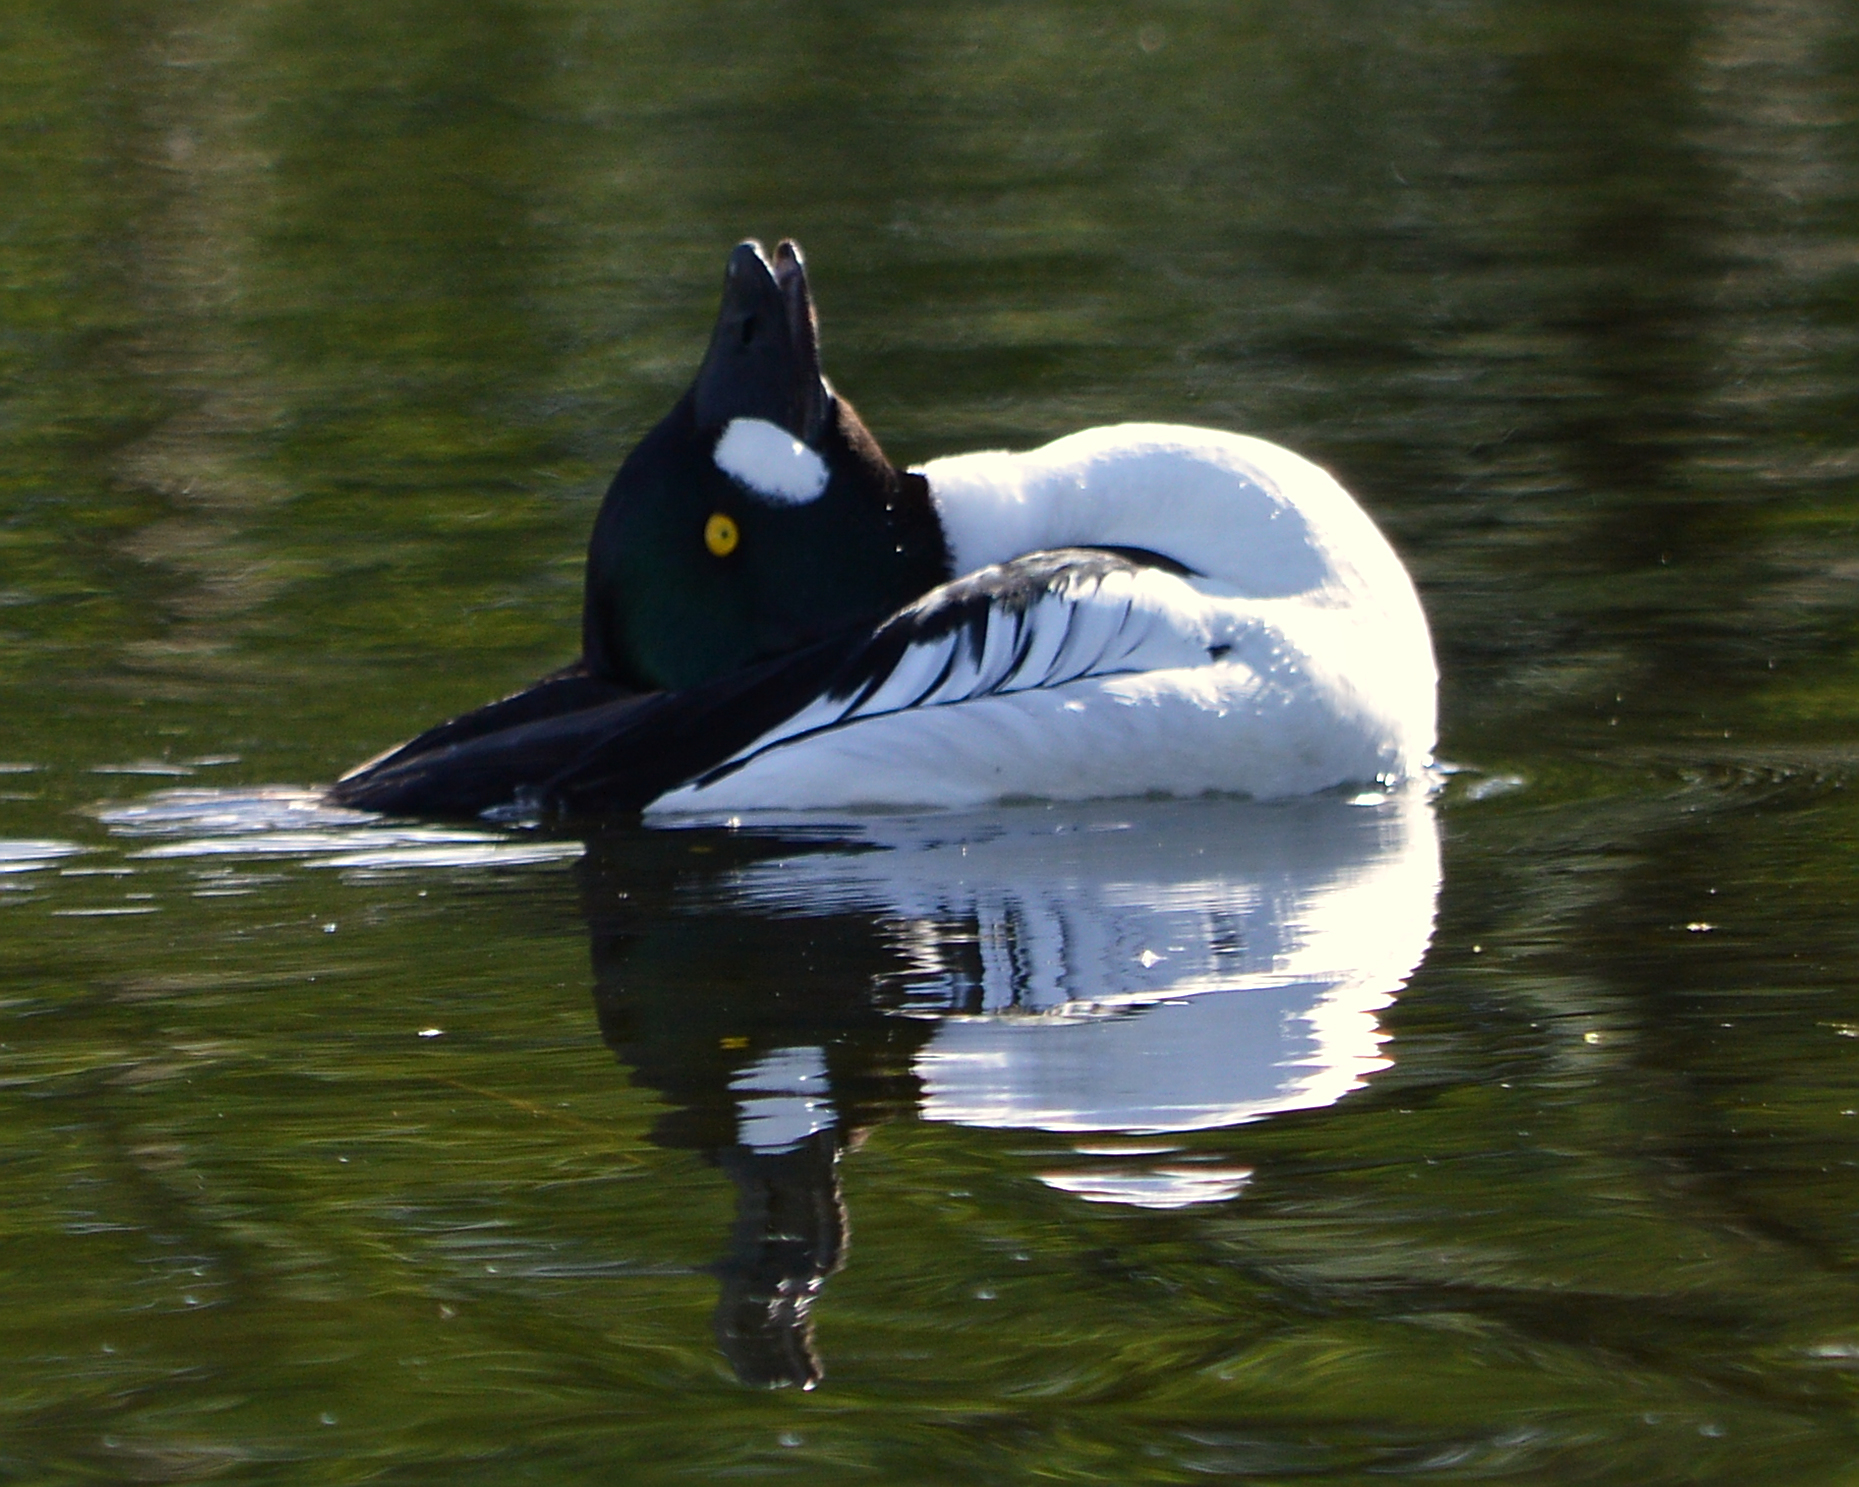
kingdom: Animalia
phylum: Chordata
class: Aves
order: Anseriformes
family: Anatidae
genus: Bucephala
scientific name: Bucephala clangula
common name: Common goldeneye
